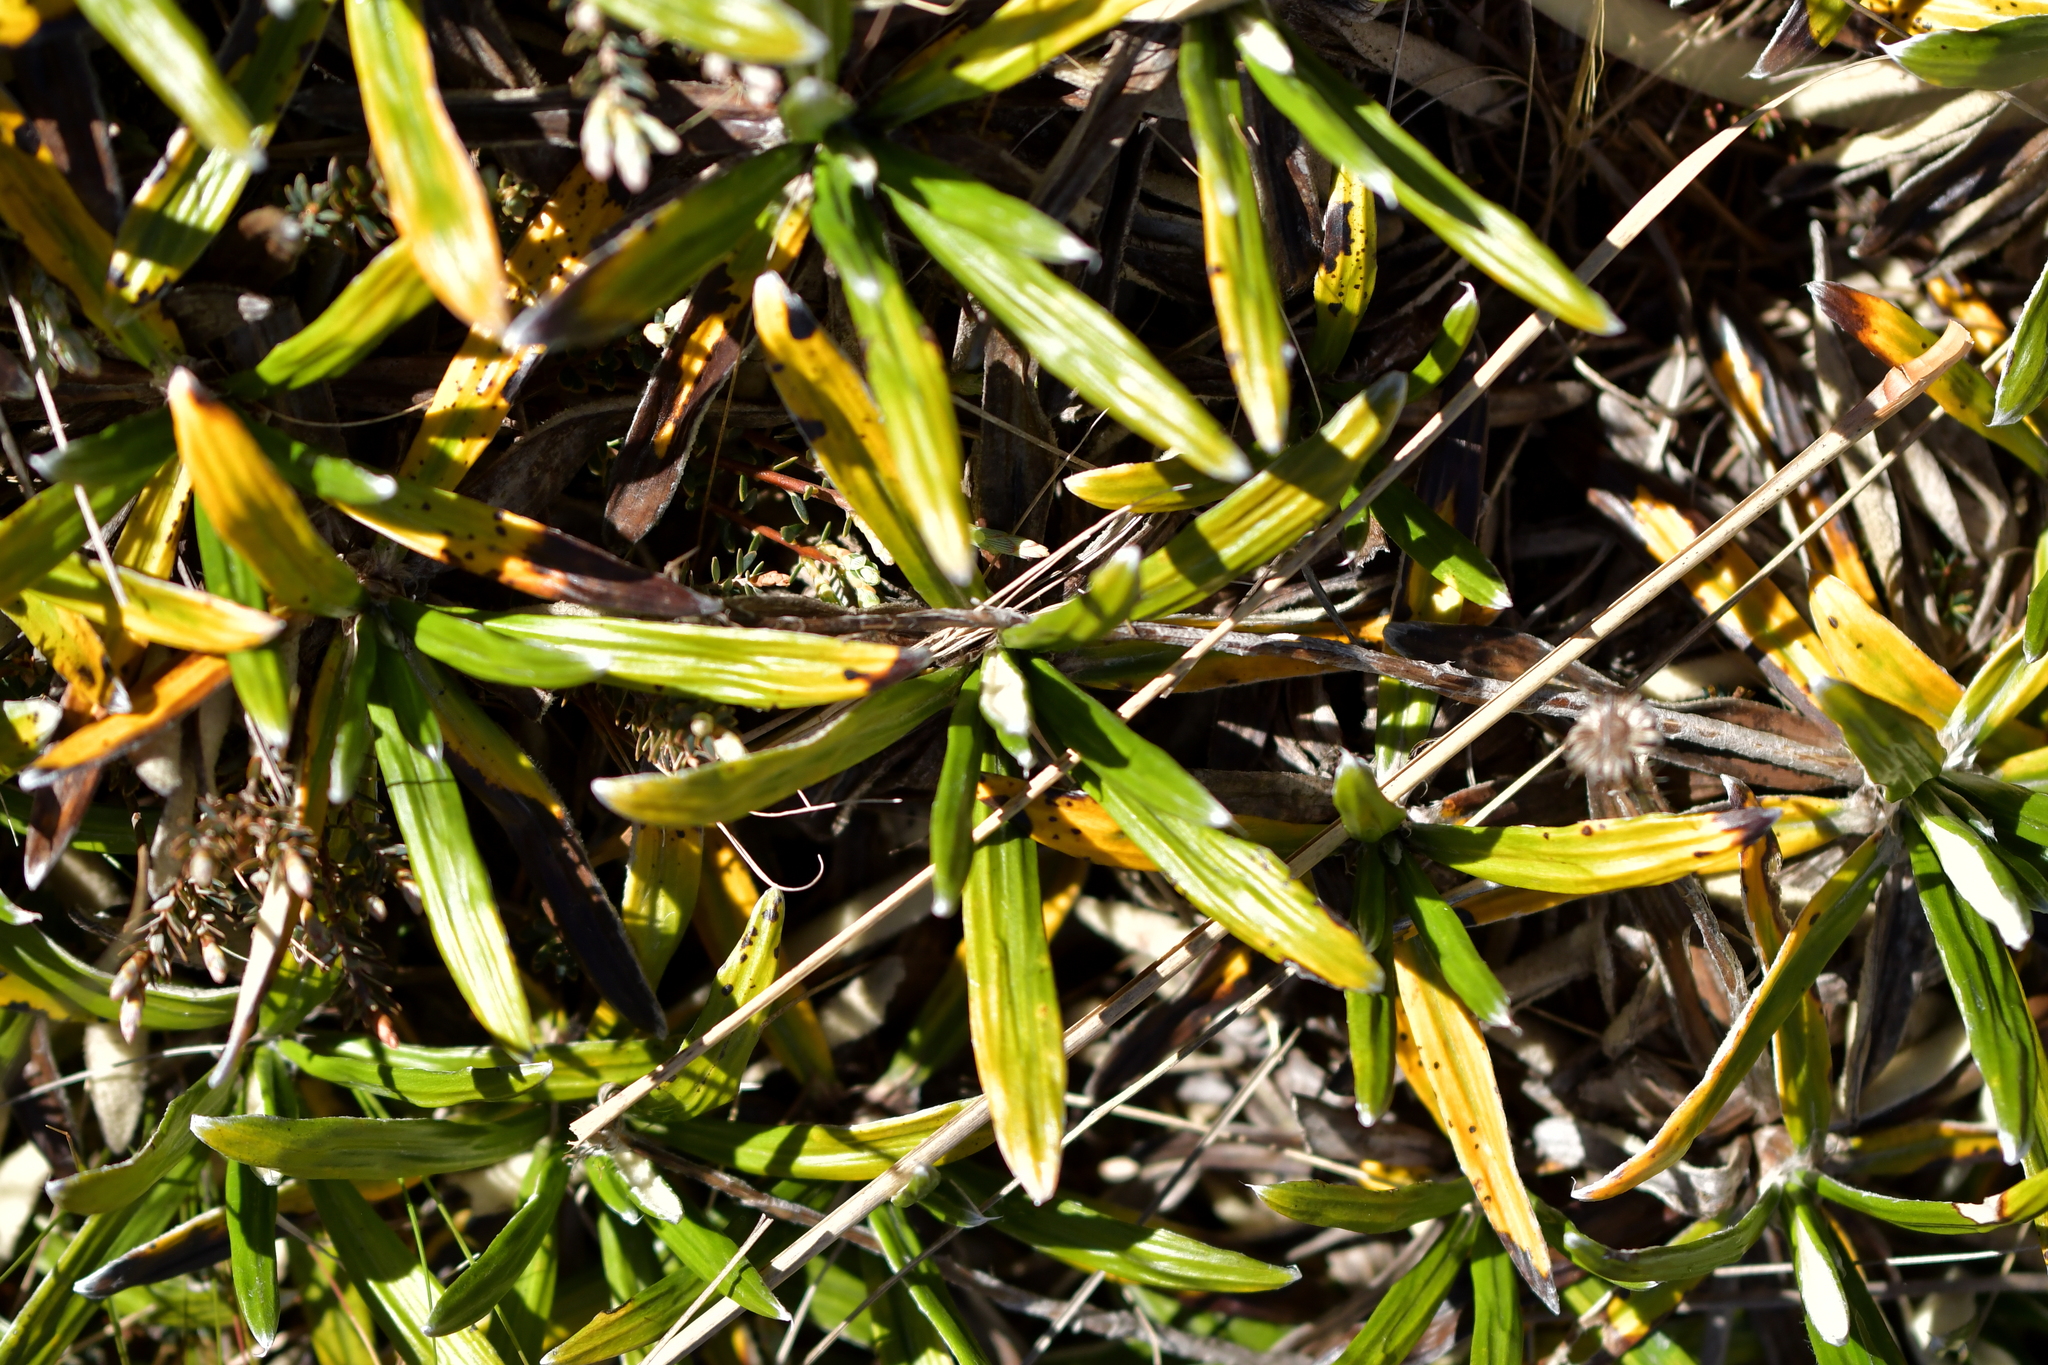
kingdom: Plantae
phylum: Tracheophyta
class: Magnoliopsida
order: Asterales
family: Asteraceae
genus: Celmisia
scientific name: Celmisia spectabilis
